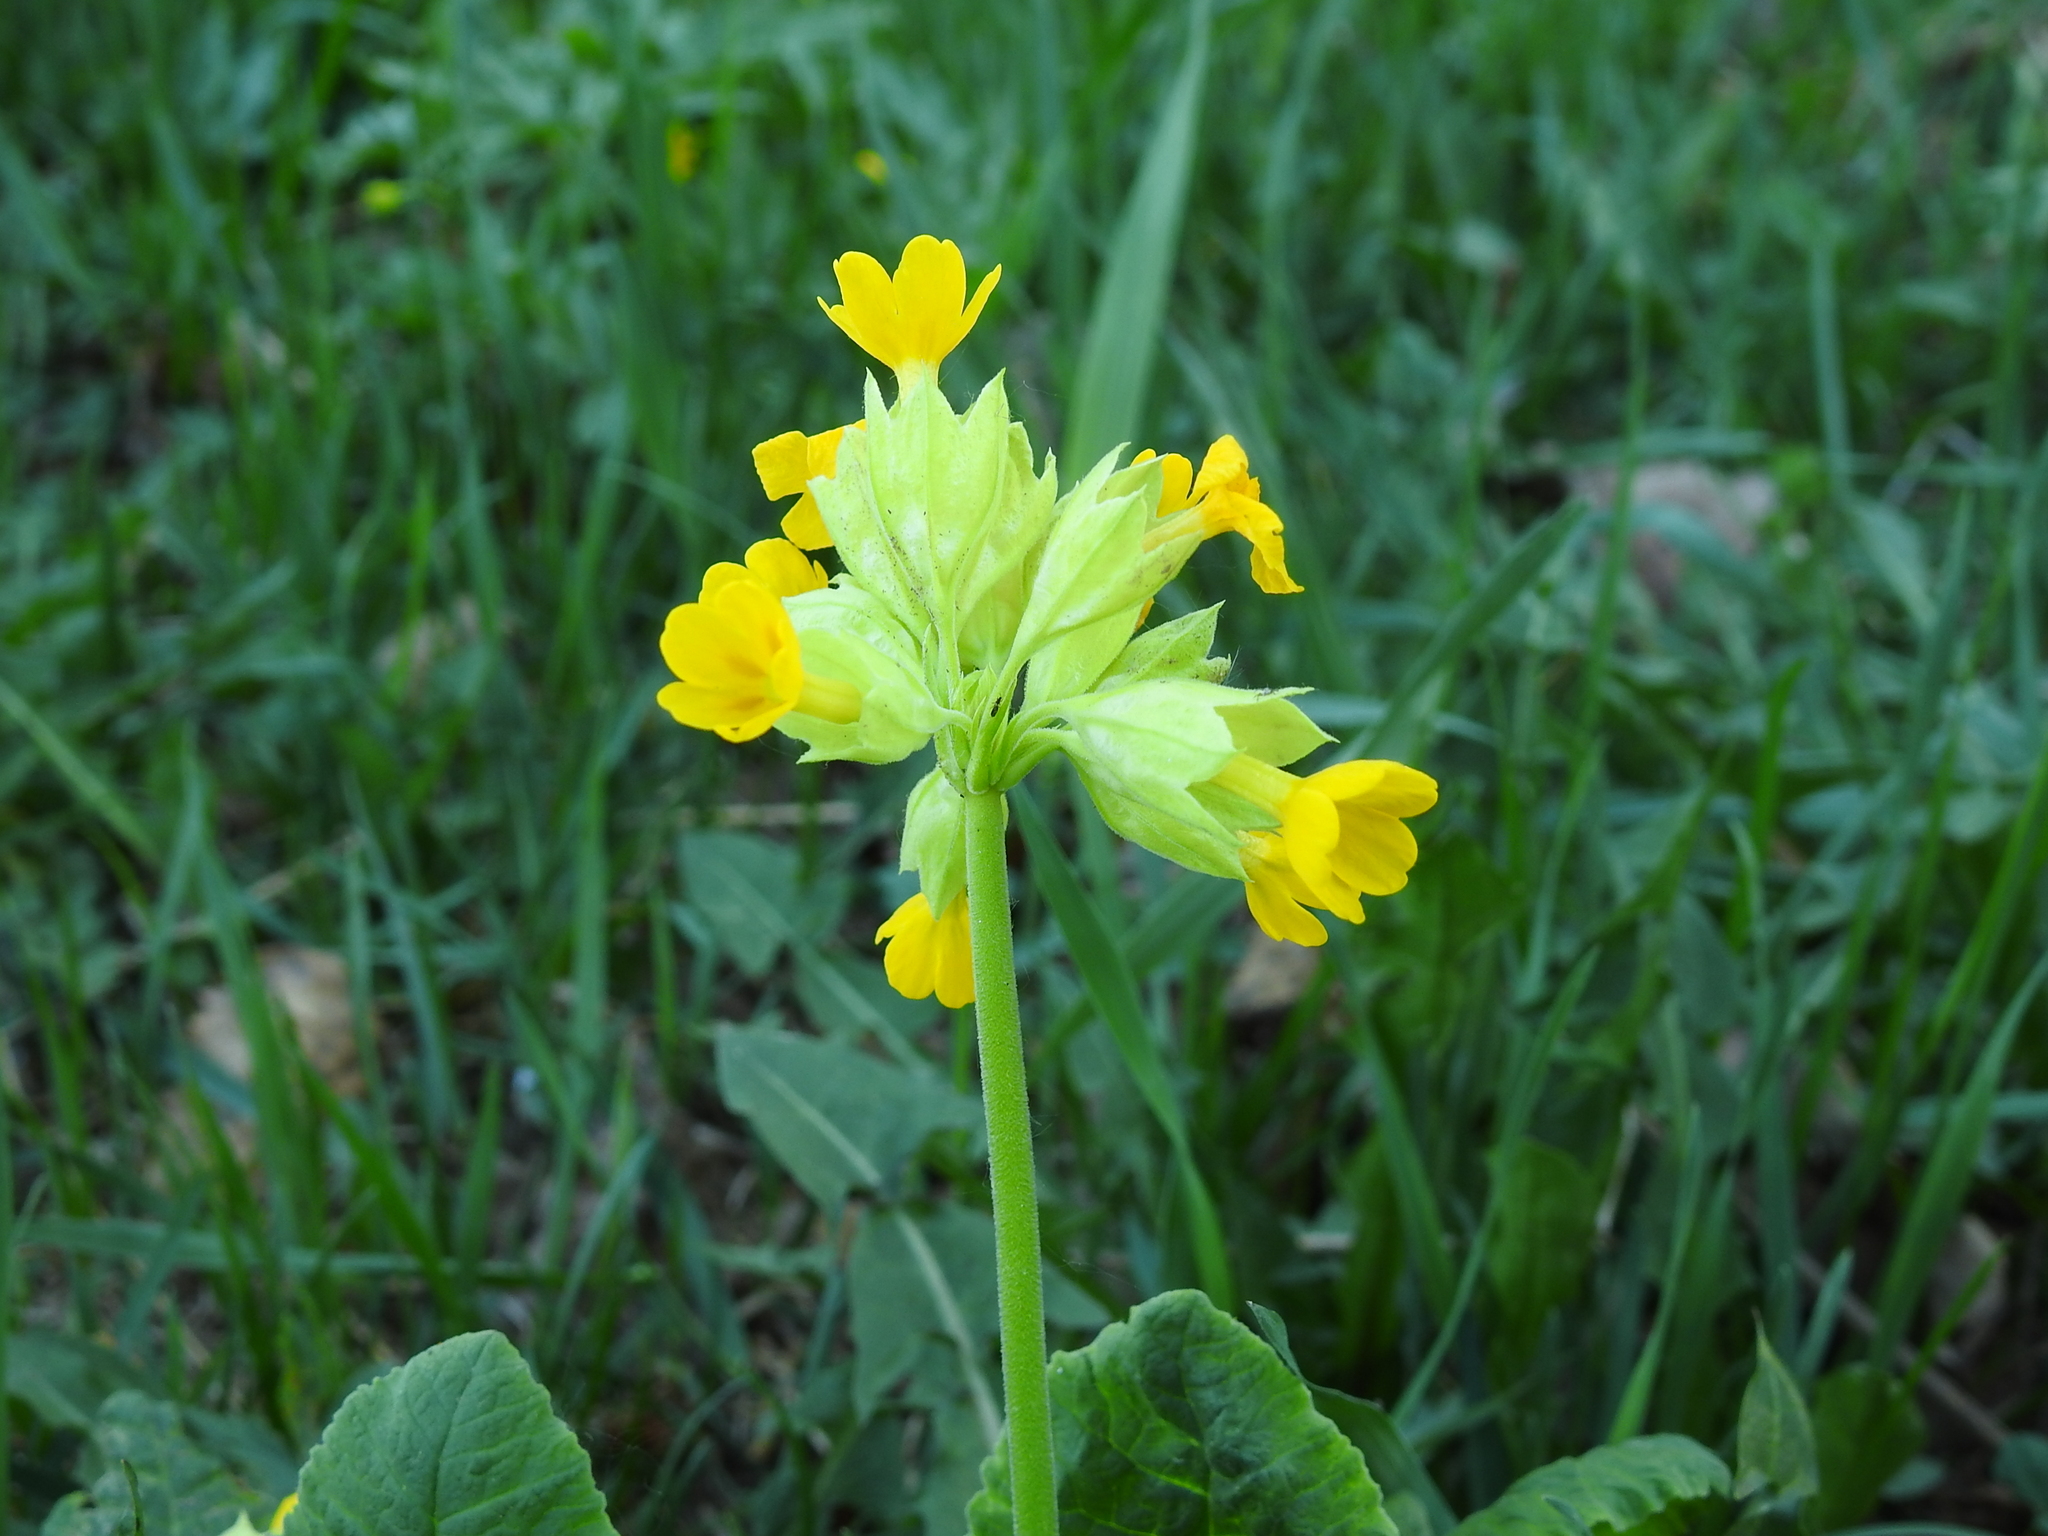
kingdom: Plantae
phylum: Tracheophyta
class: Magnoliopsida
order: Ericales
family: Primulaceae
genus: Primula
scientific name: Primula veris
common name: Cowslip
